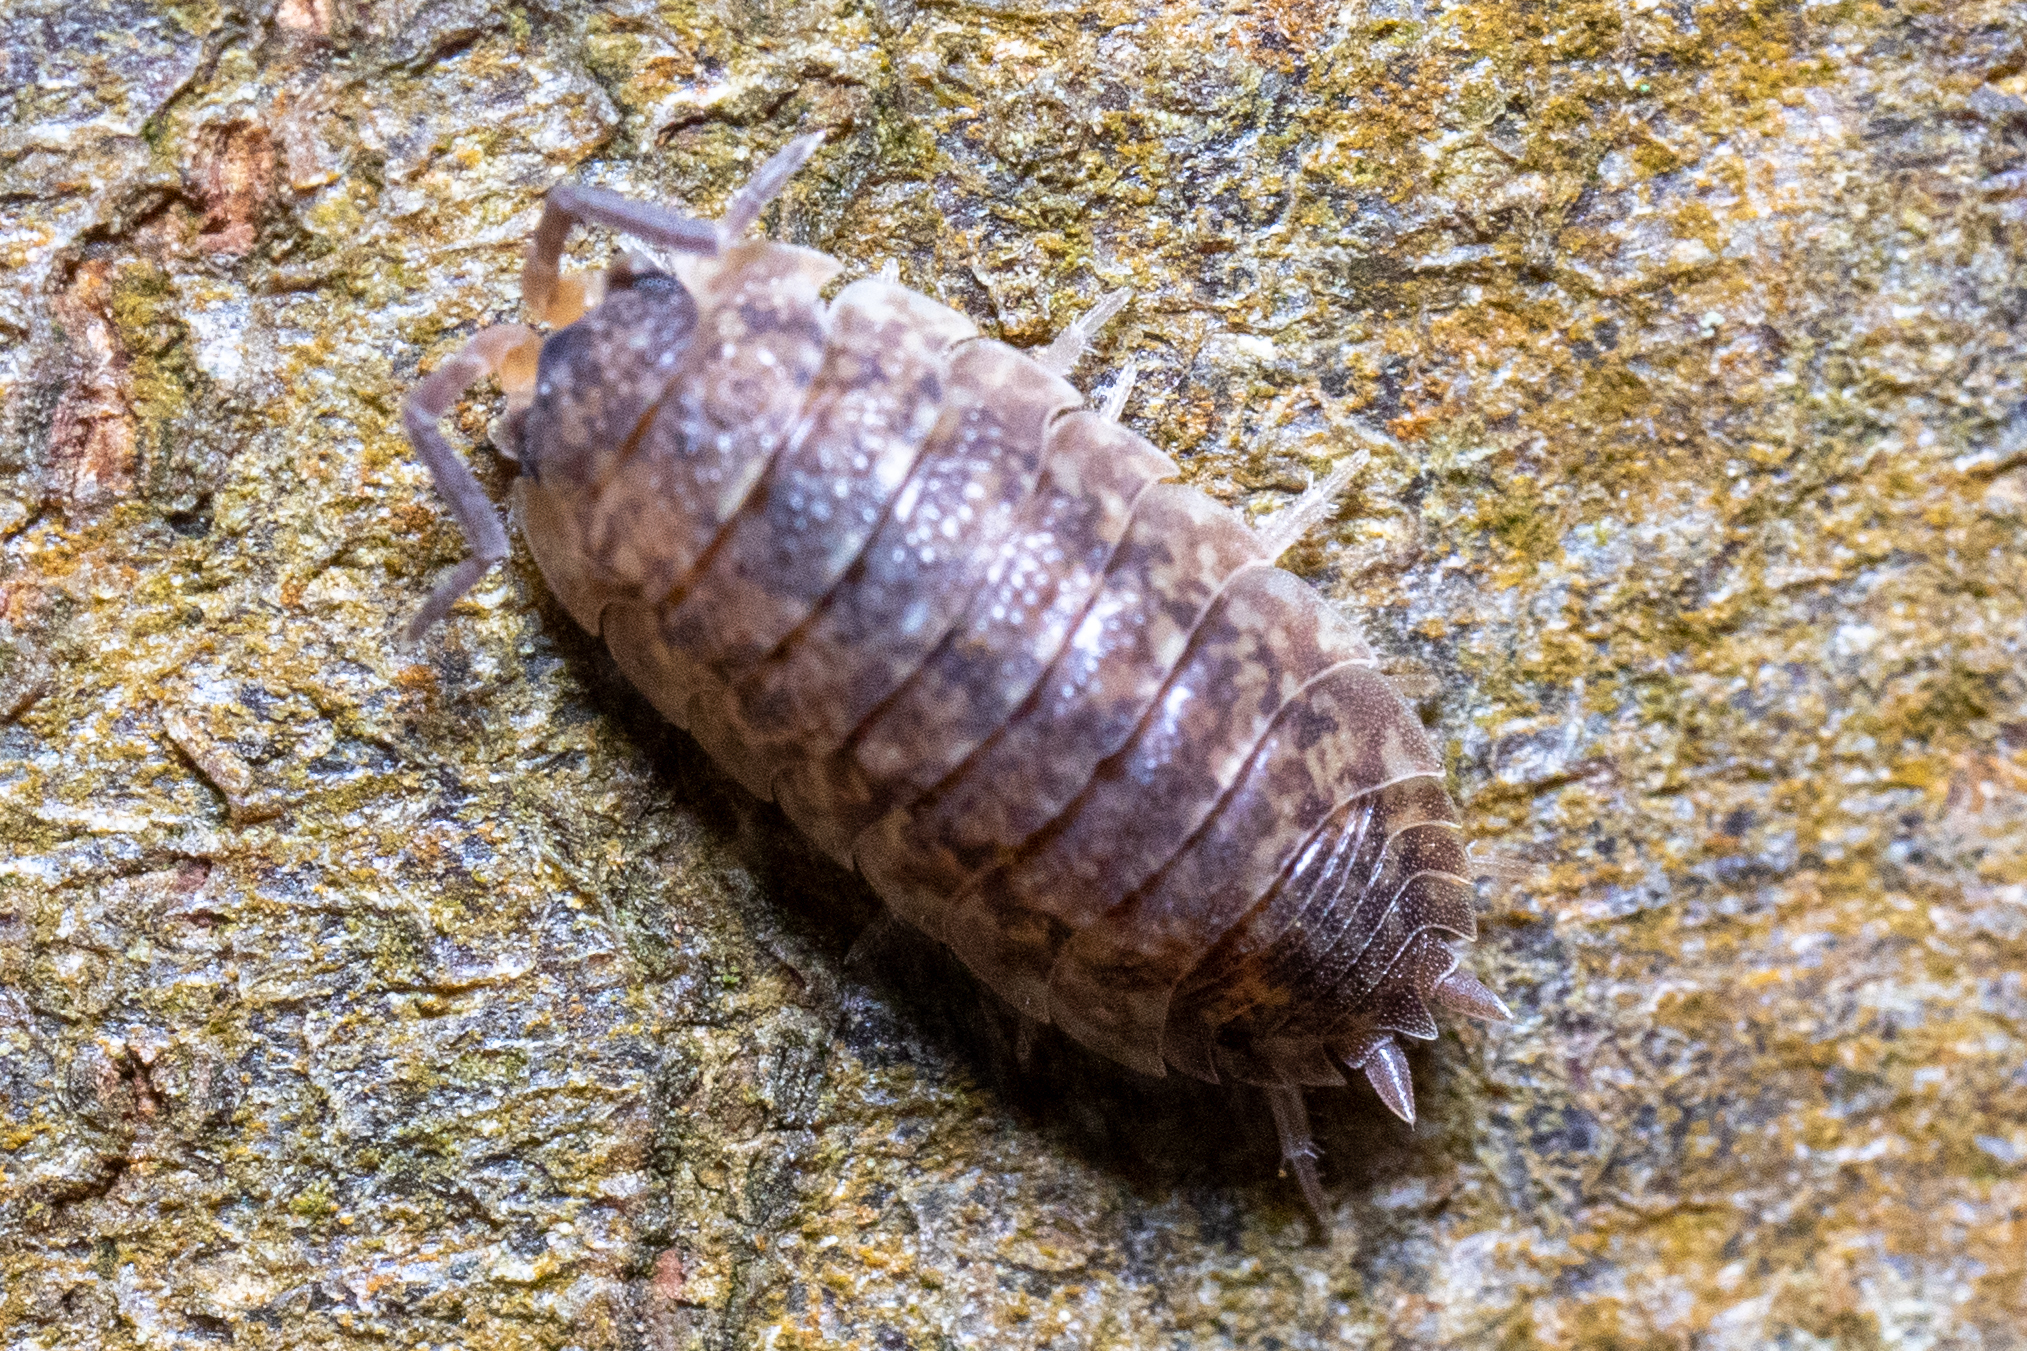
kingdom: Animalia
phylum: Arthropoda
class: Malacostraca
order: Isopoda
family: Porcellionidae
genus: Porcellio
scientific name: Porcellio scaber
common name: Common rough woodlouse
